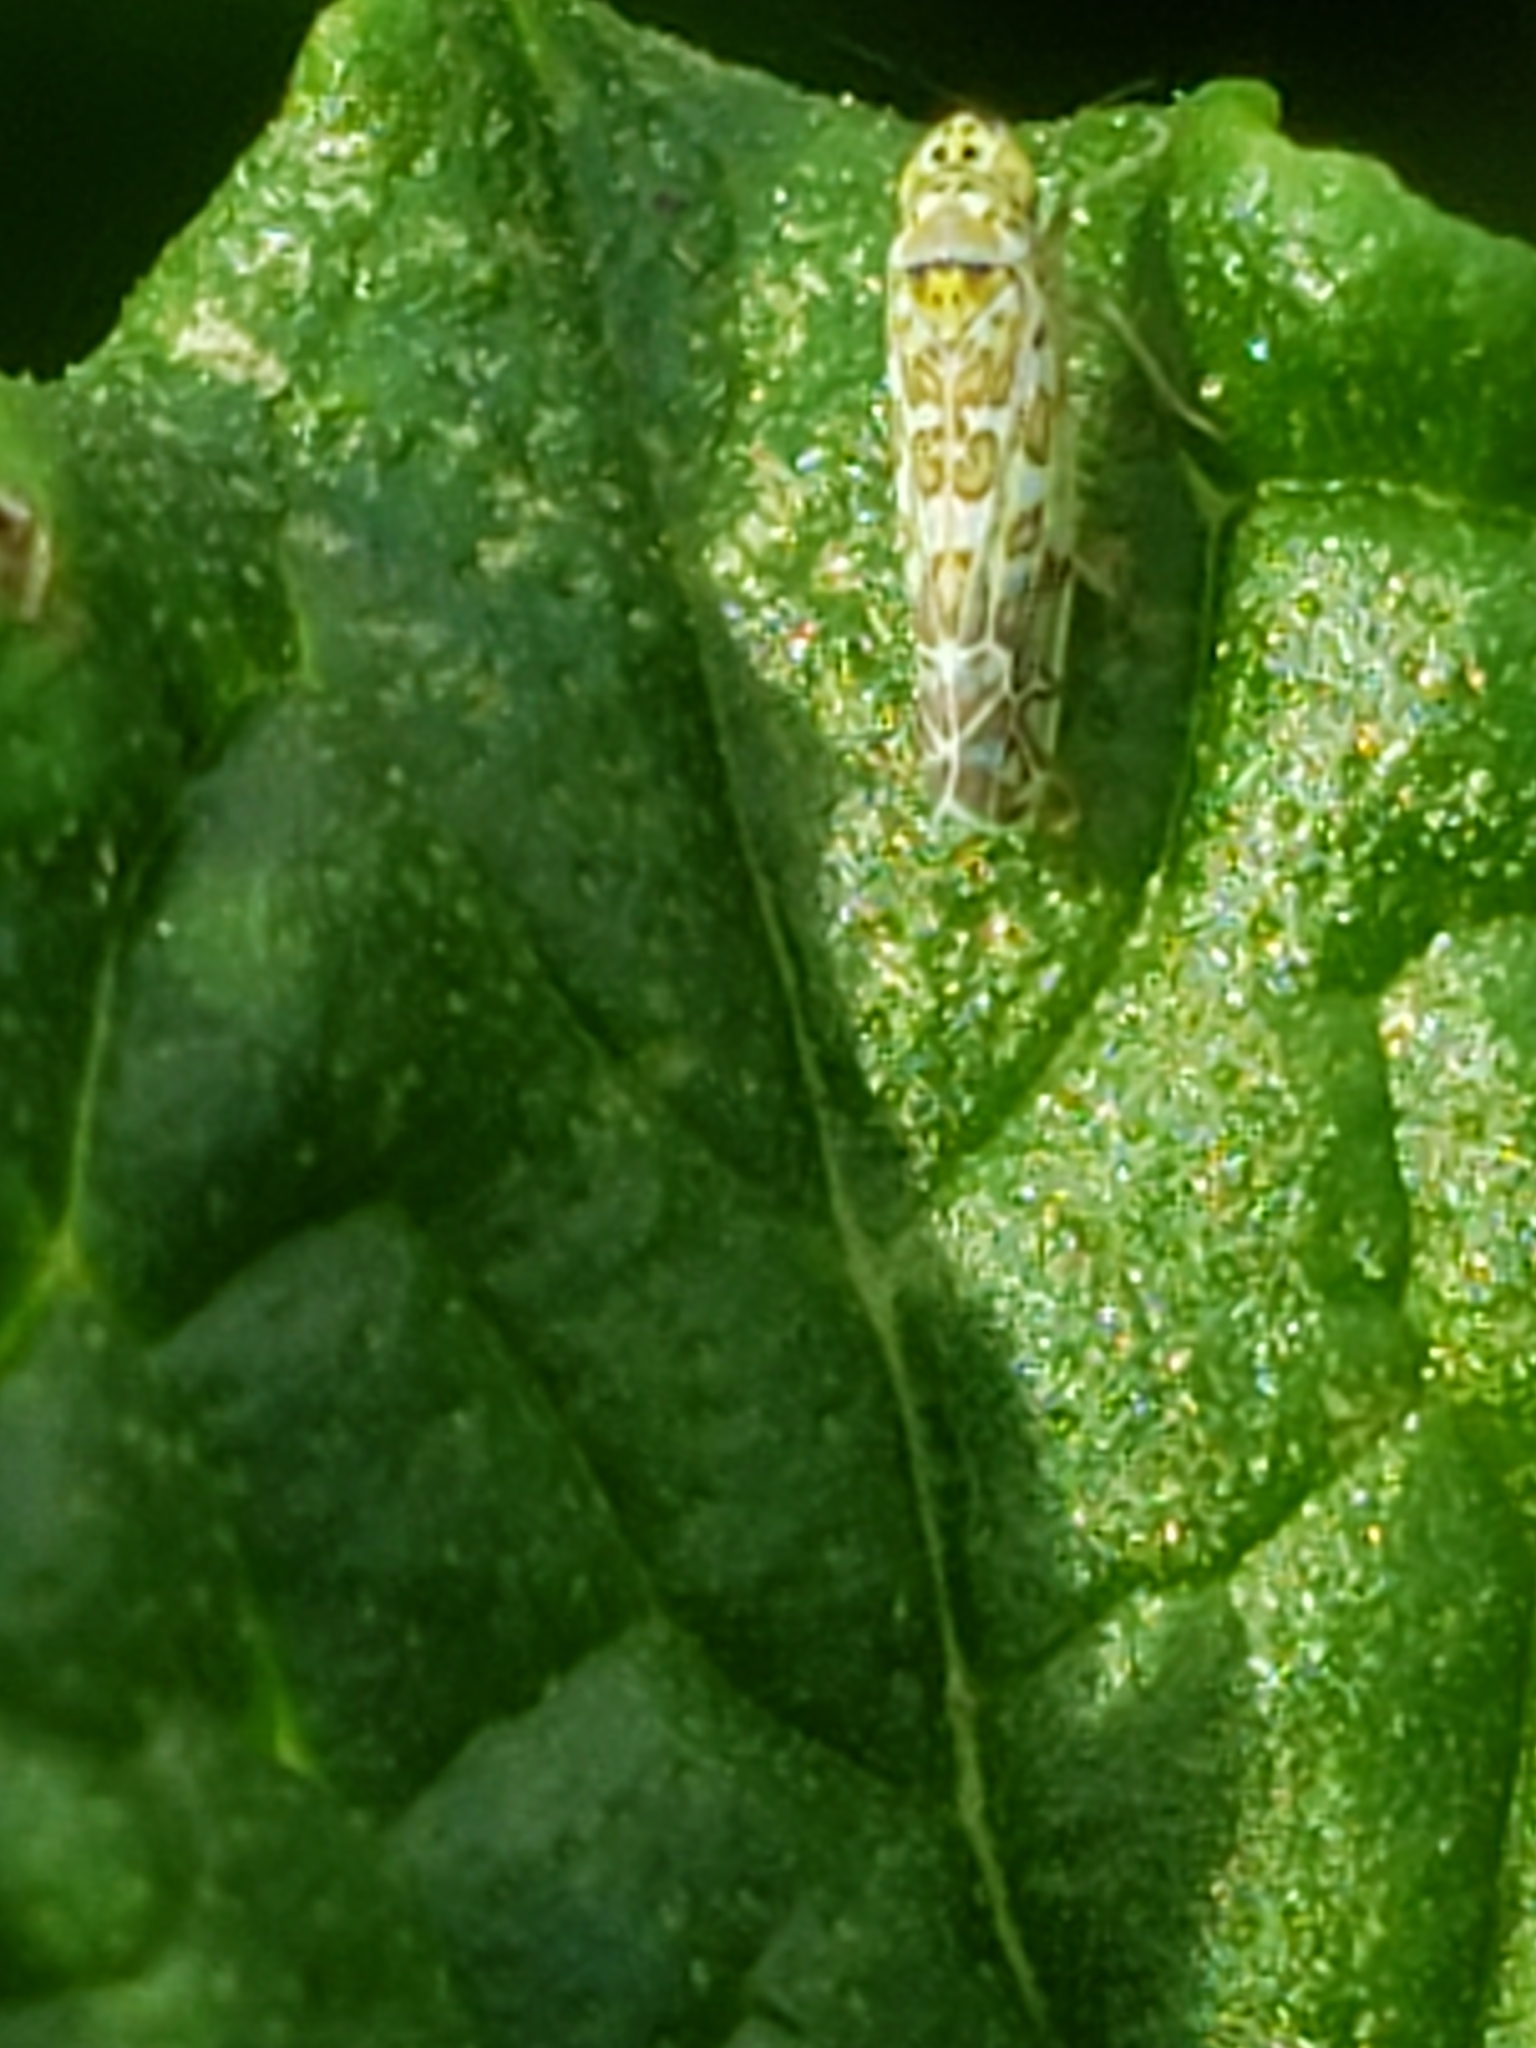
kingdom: Animalia
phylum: Arthropoda
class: Insecta
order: Hemiptera
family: Cicadellidae
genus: Eupteryx
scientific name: Eupteryx decemnotata
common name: Ligurian leafhopper
